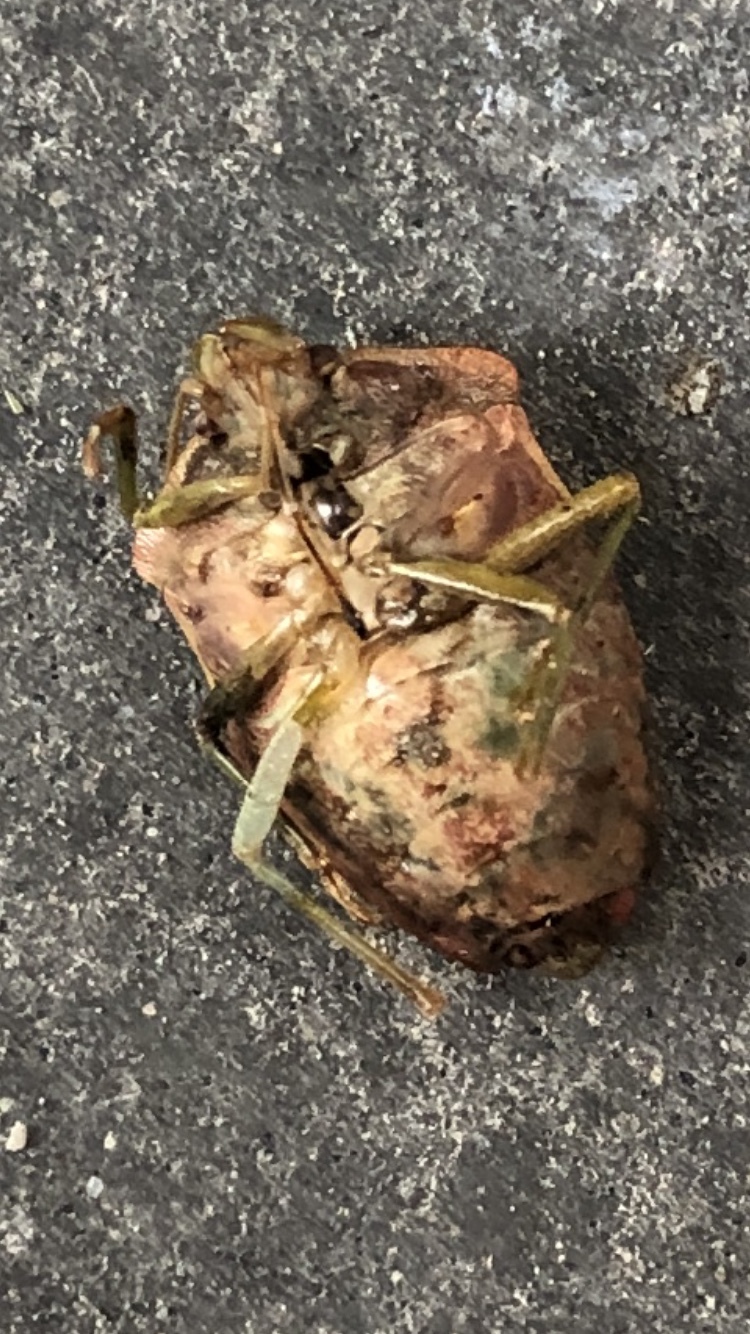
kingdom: Animalia
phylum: Arthropoda
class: Insecta
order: Hemiptera
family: Pentatomidae
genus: Palomena
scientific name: Palomena prasina
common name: Green shieldbug
